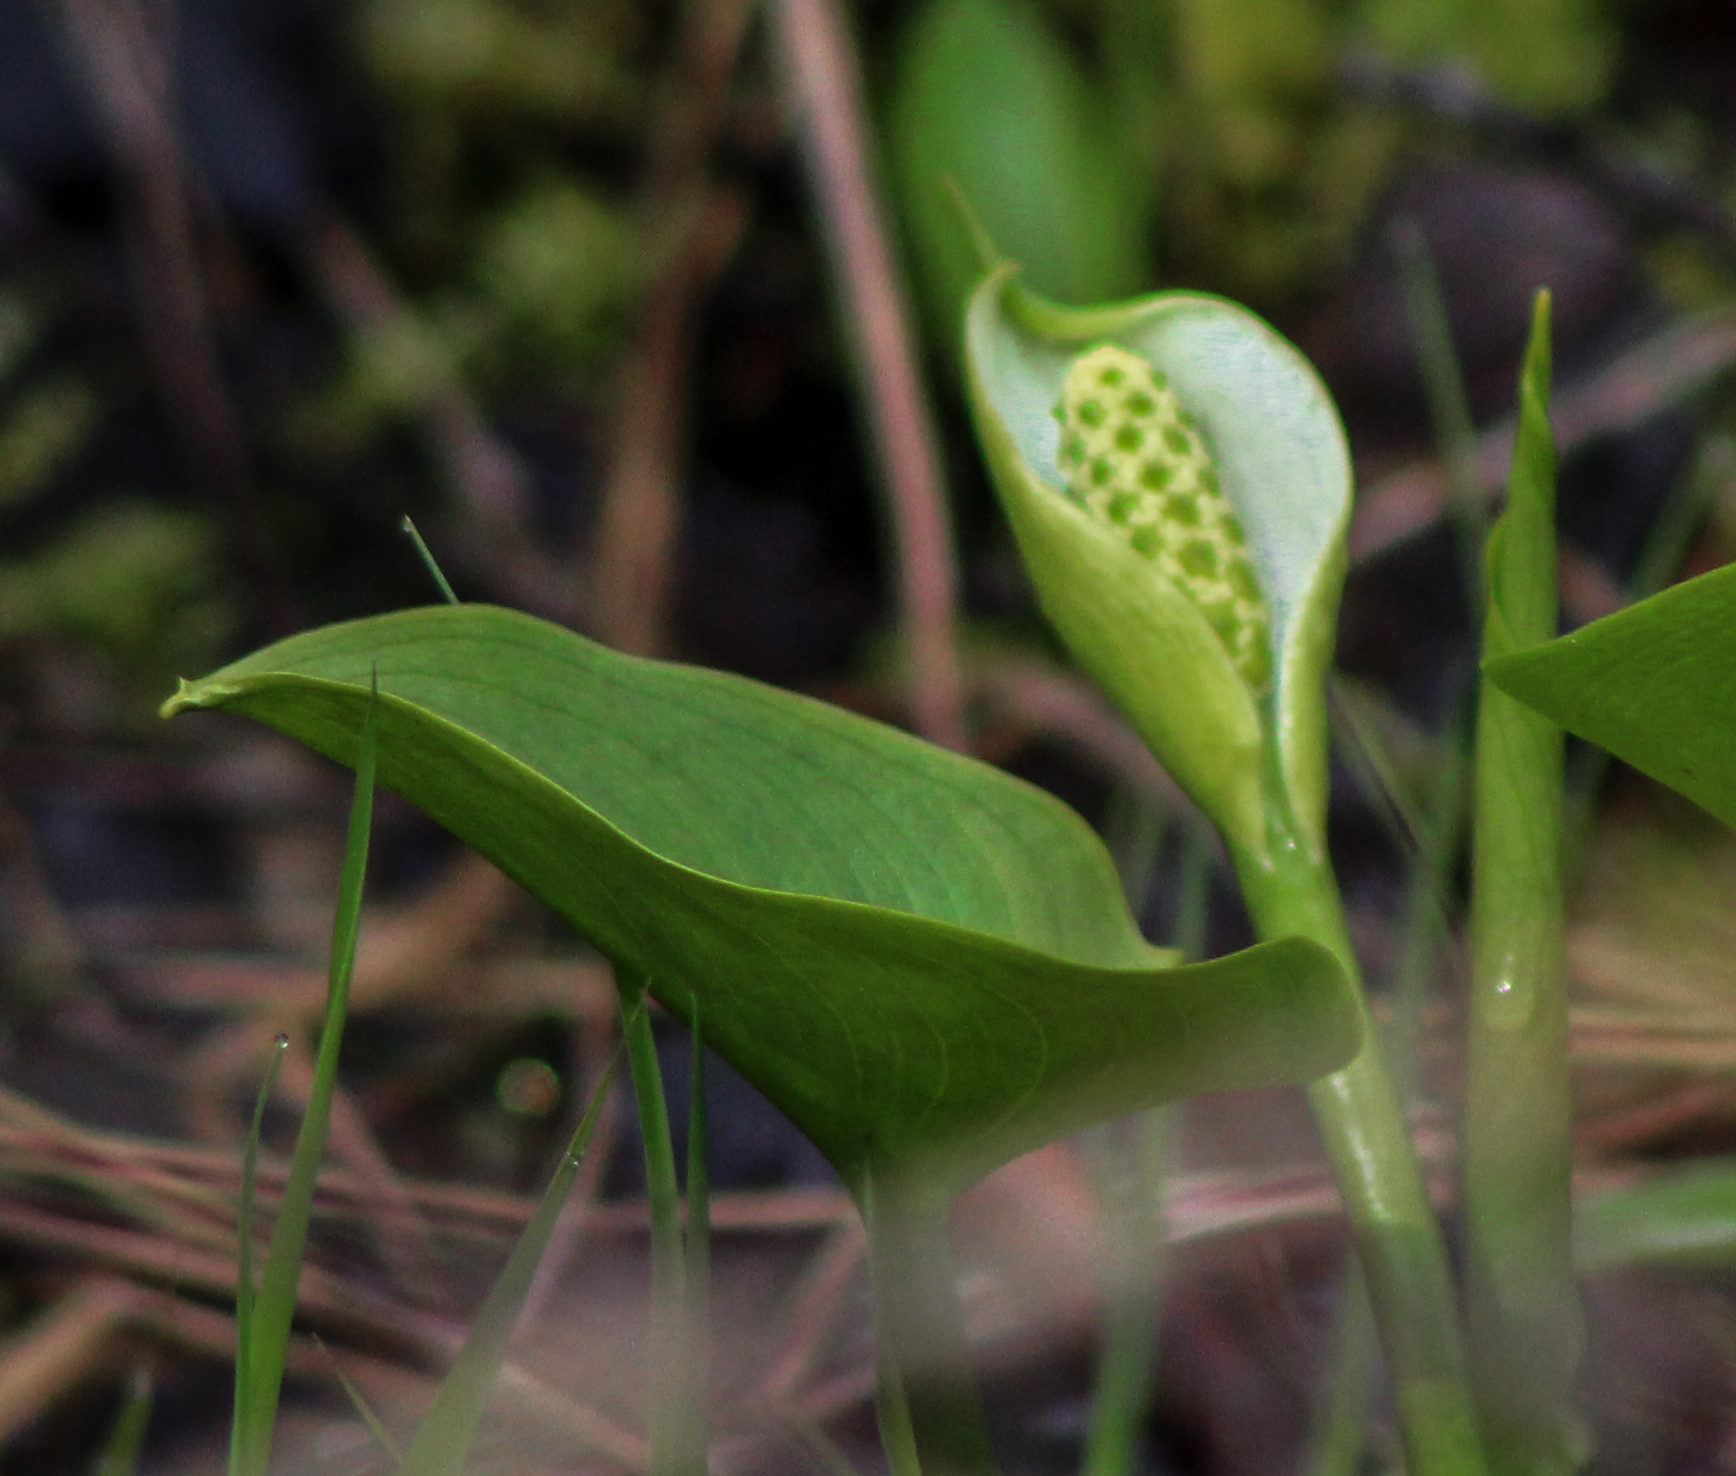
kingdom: Plantae
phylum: Tracheophyta
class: Liliopsida
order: Alismatales
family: Araceae
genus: Calla
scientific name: Calla palustris
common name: Bog arum
